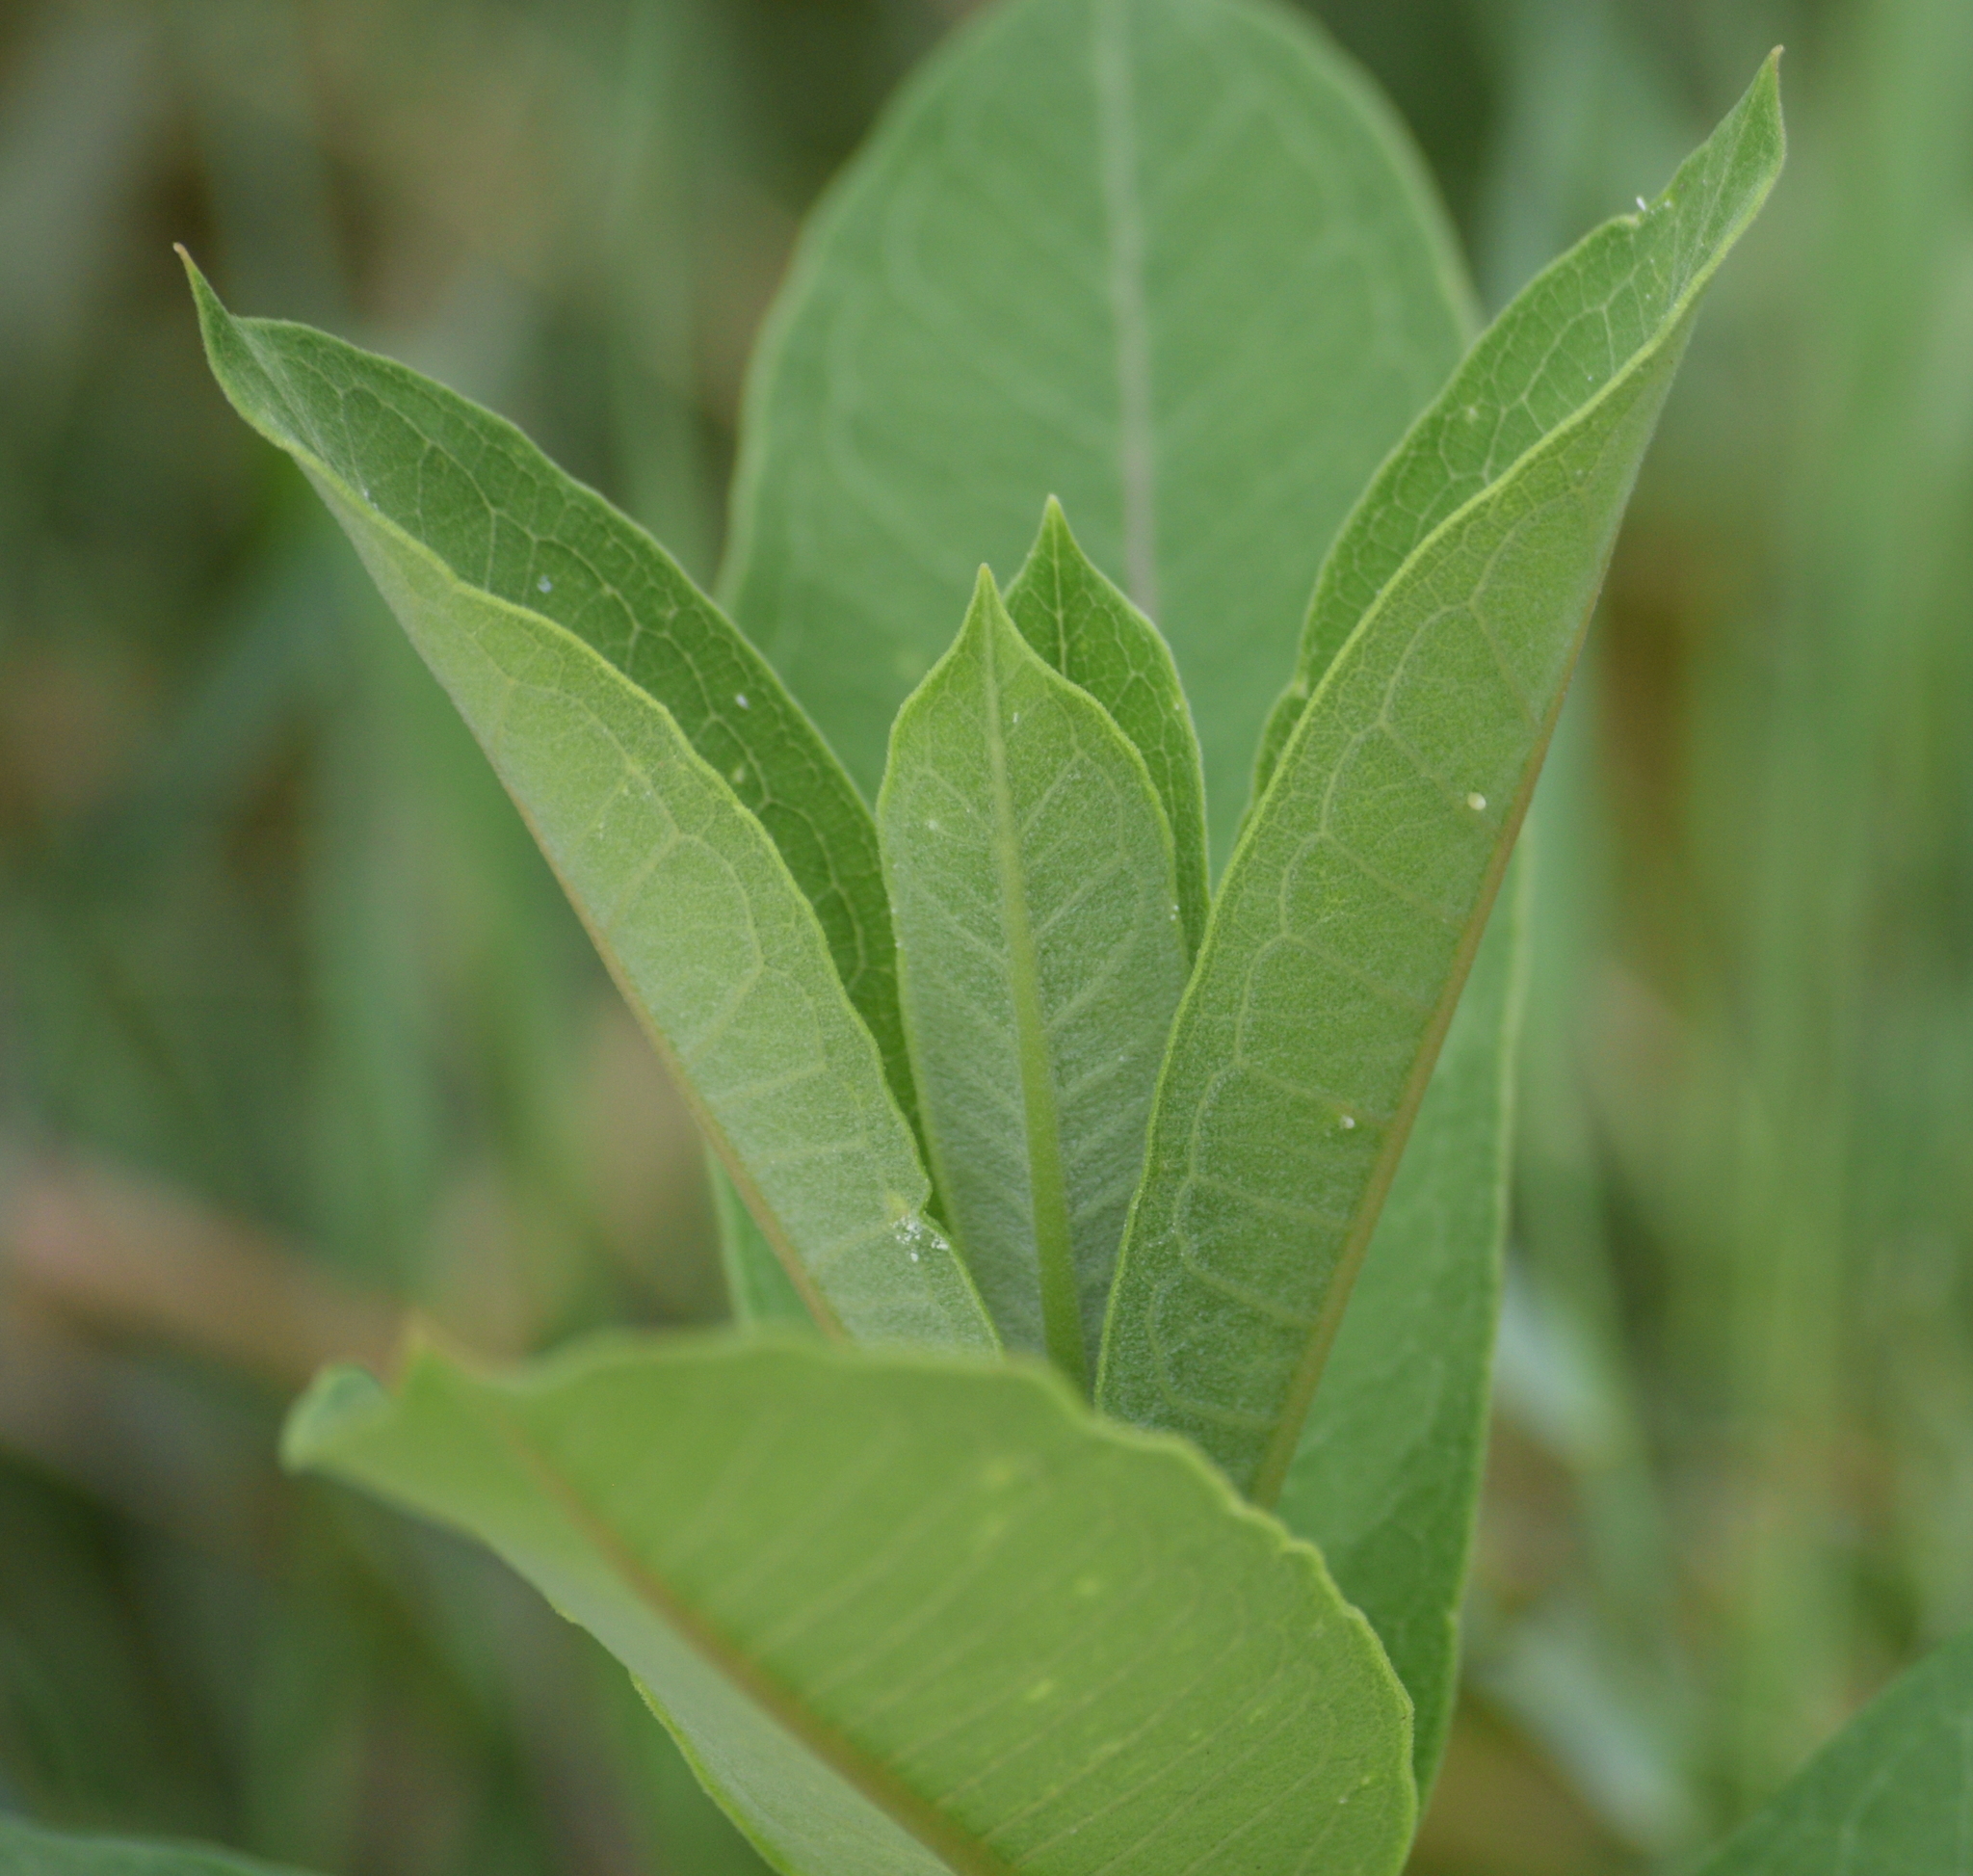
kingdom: Animalia
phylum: Arthropoda
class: Insecta
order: Lepidoptera
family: Nymphalidae
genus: Danaus
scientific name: Danaus plexippus
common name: Monarch
